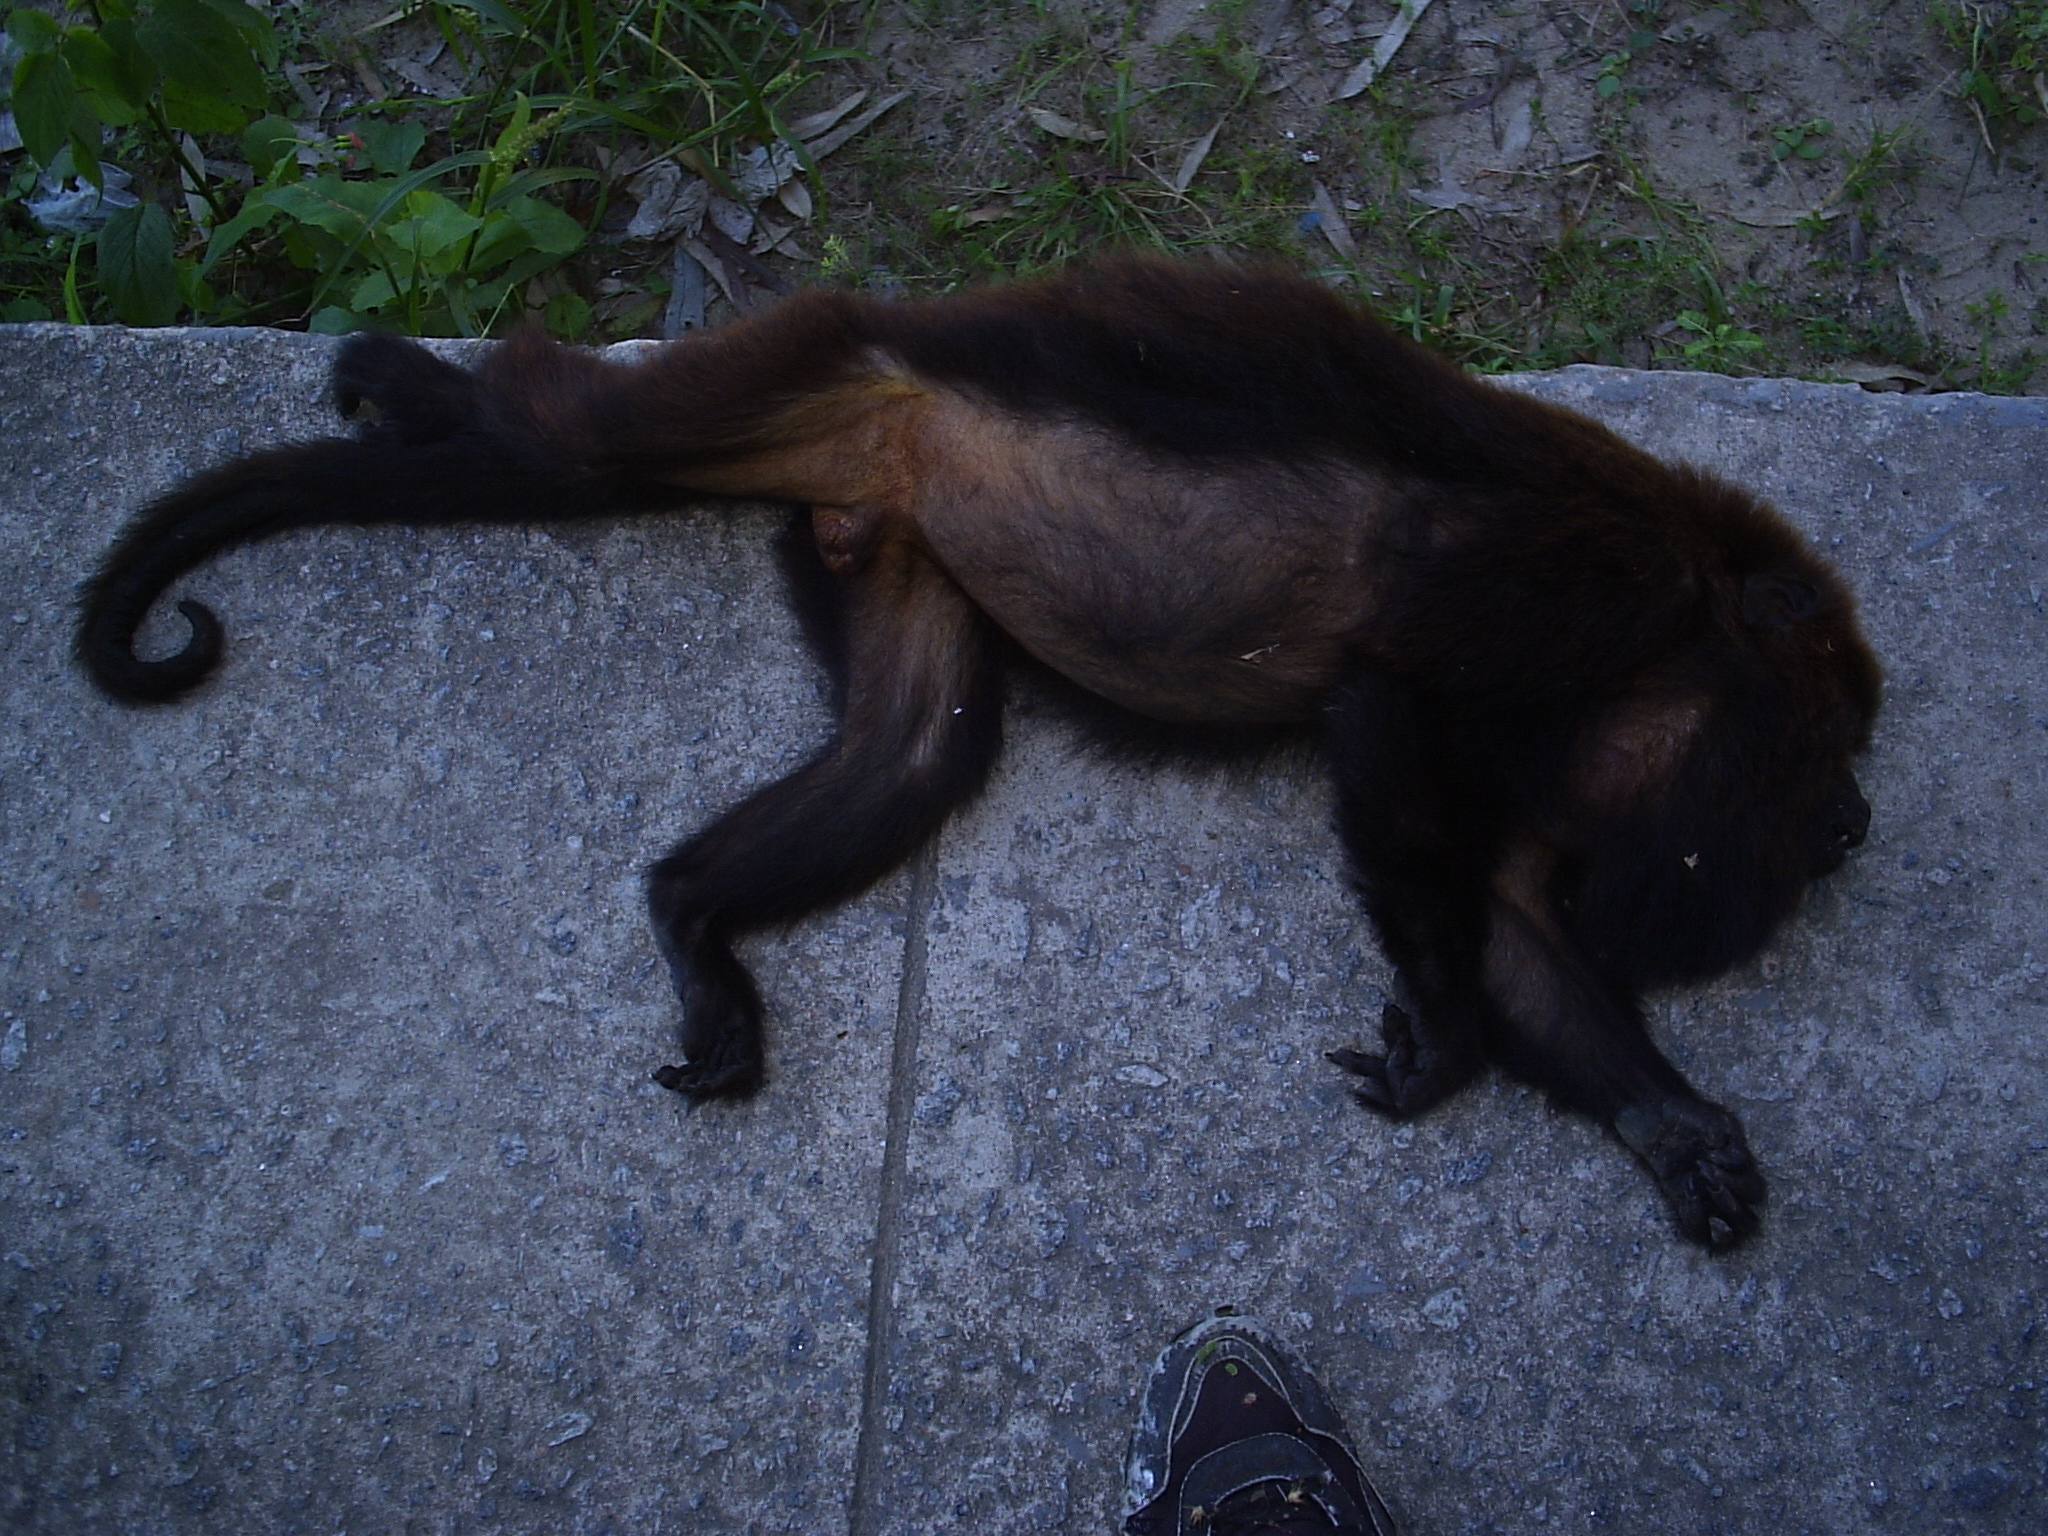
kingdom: Animalia
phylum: Chordata
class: Mammalia
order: Primates
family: Atelidae
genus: Alouatta
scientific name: Alouatta guariba
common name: Brown howler monkey
